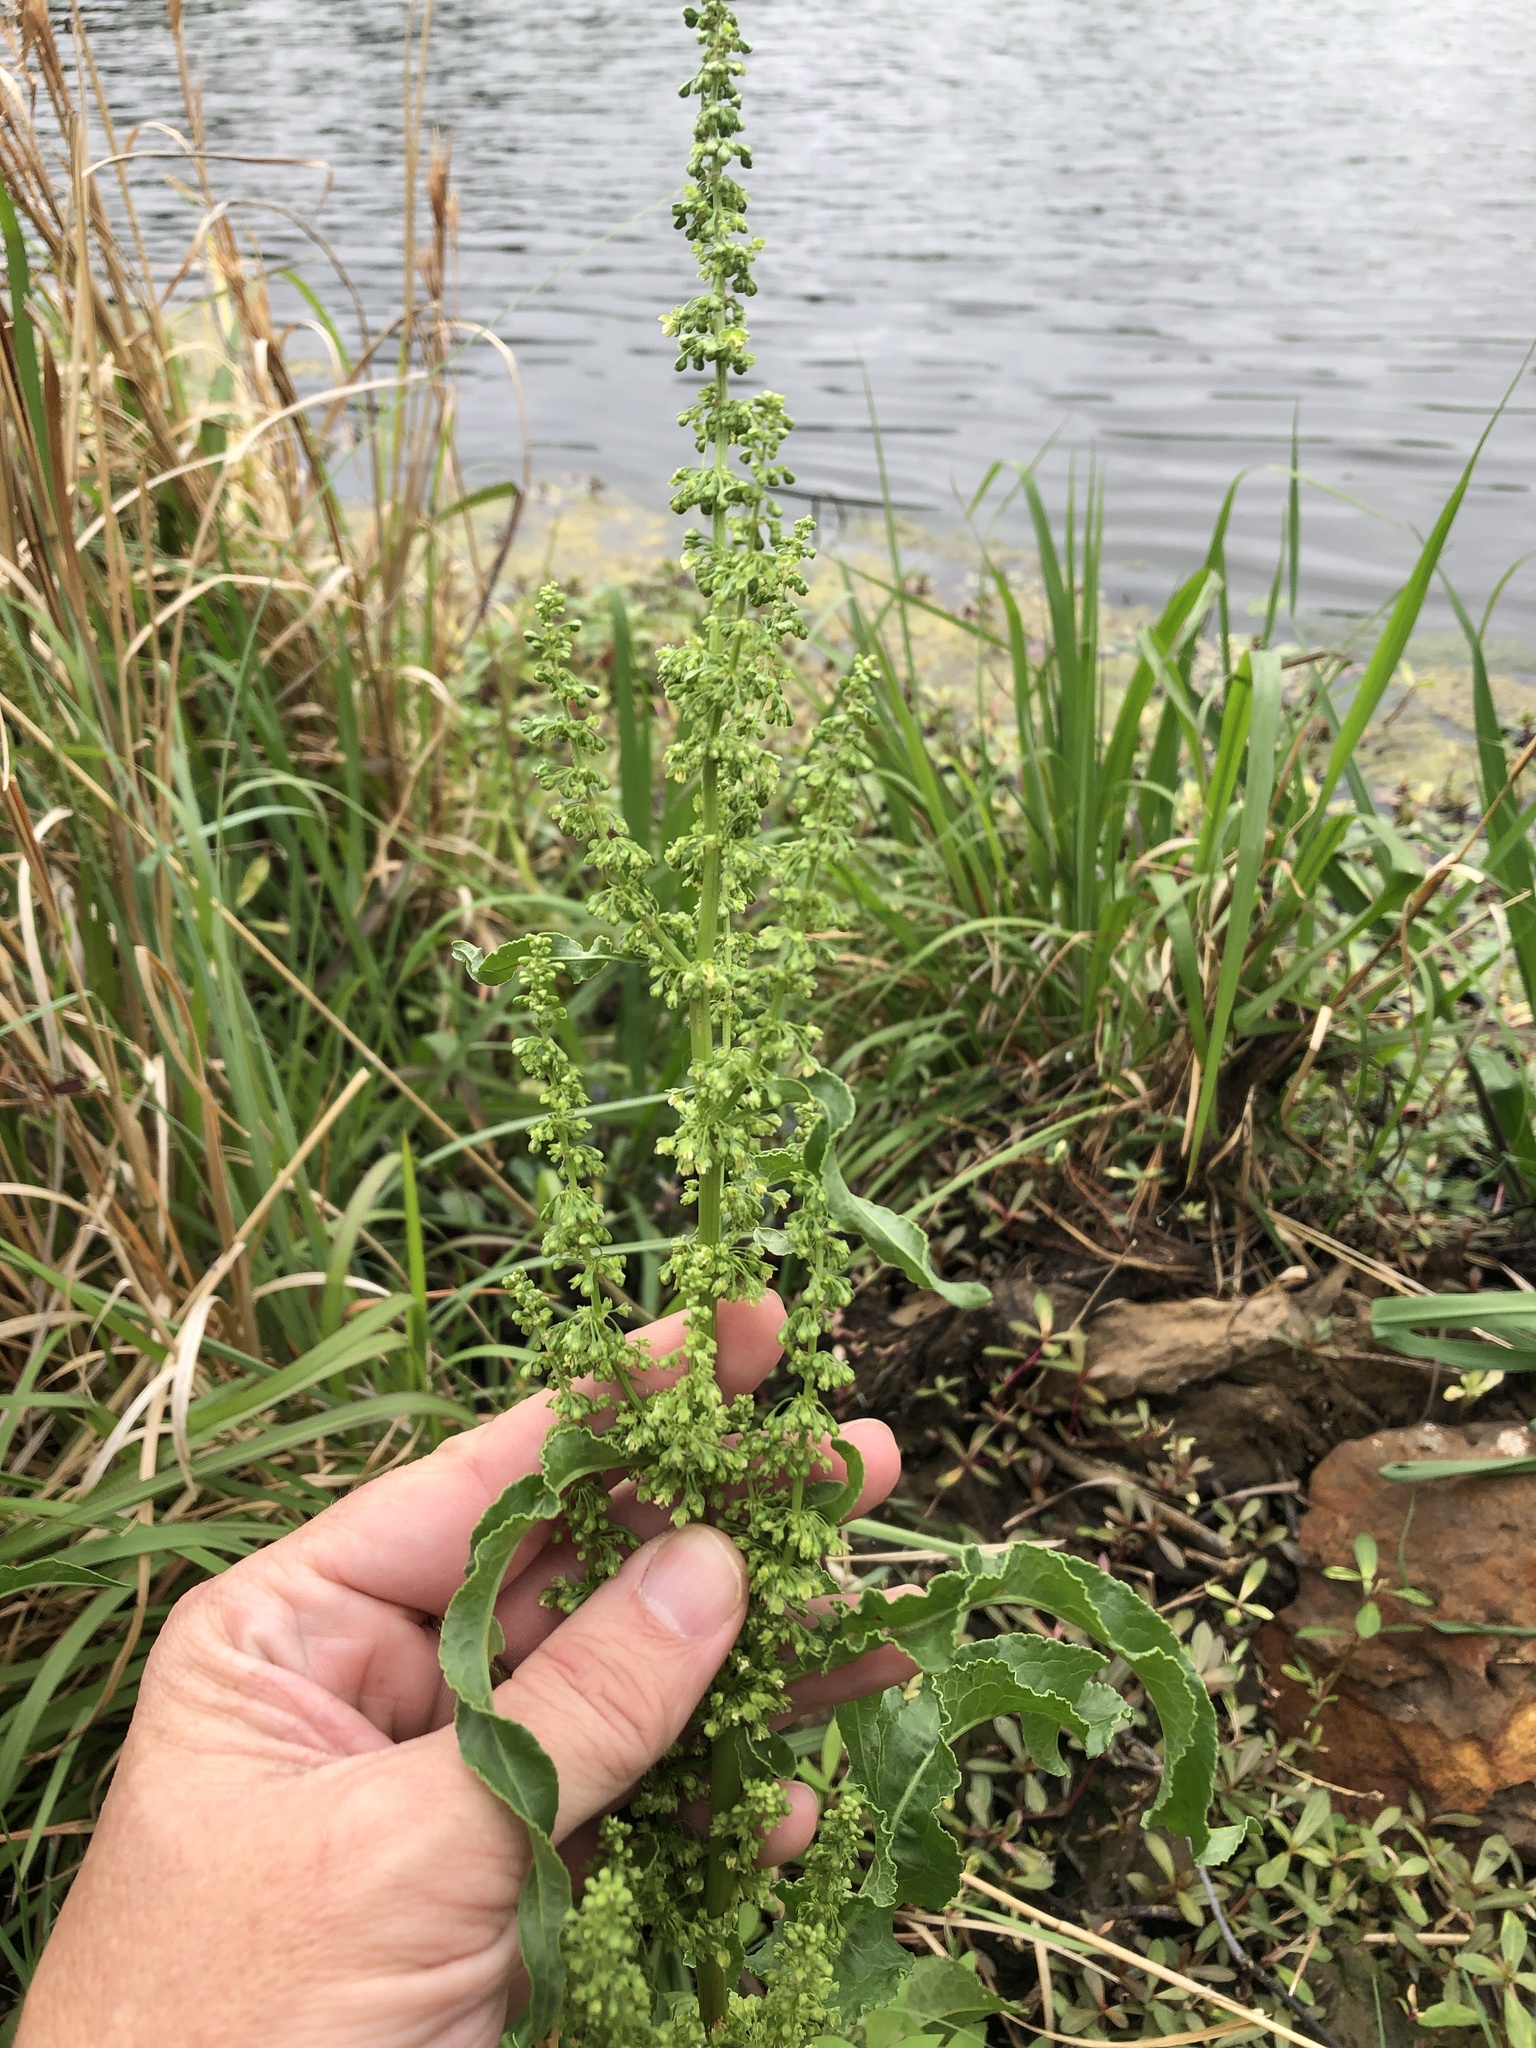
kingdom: Plantae
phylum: Tracheophyta
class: Magnoliopsida
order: Caryophyllales
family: Polygonaceae
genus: Rumex
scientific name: Rumex crispus
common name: Curled dock
